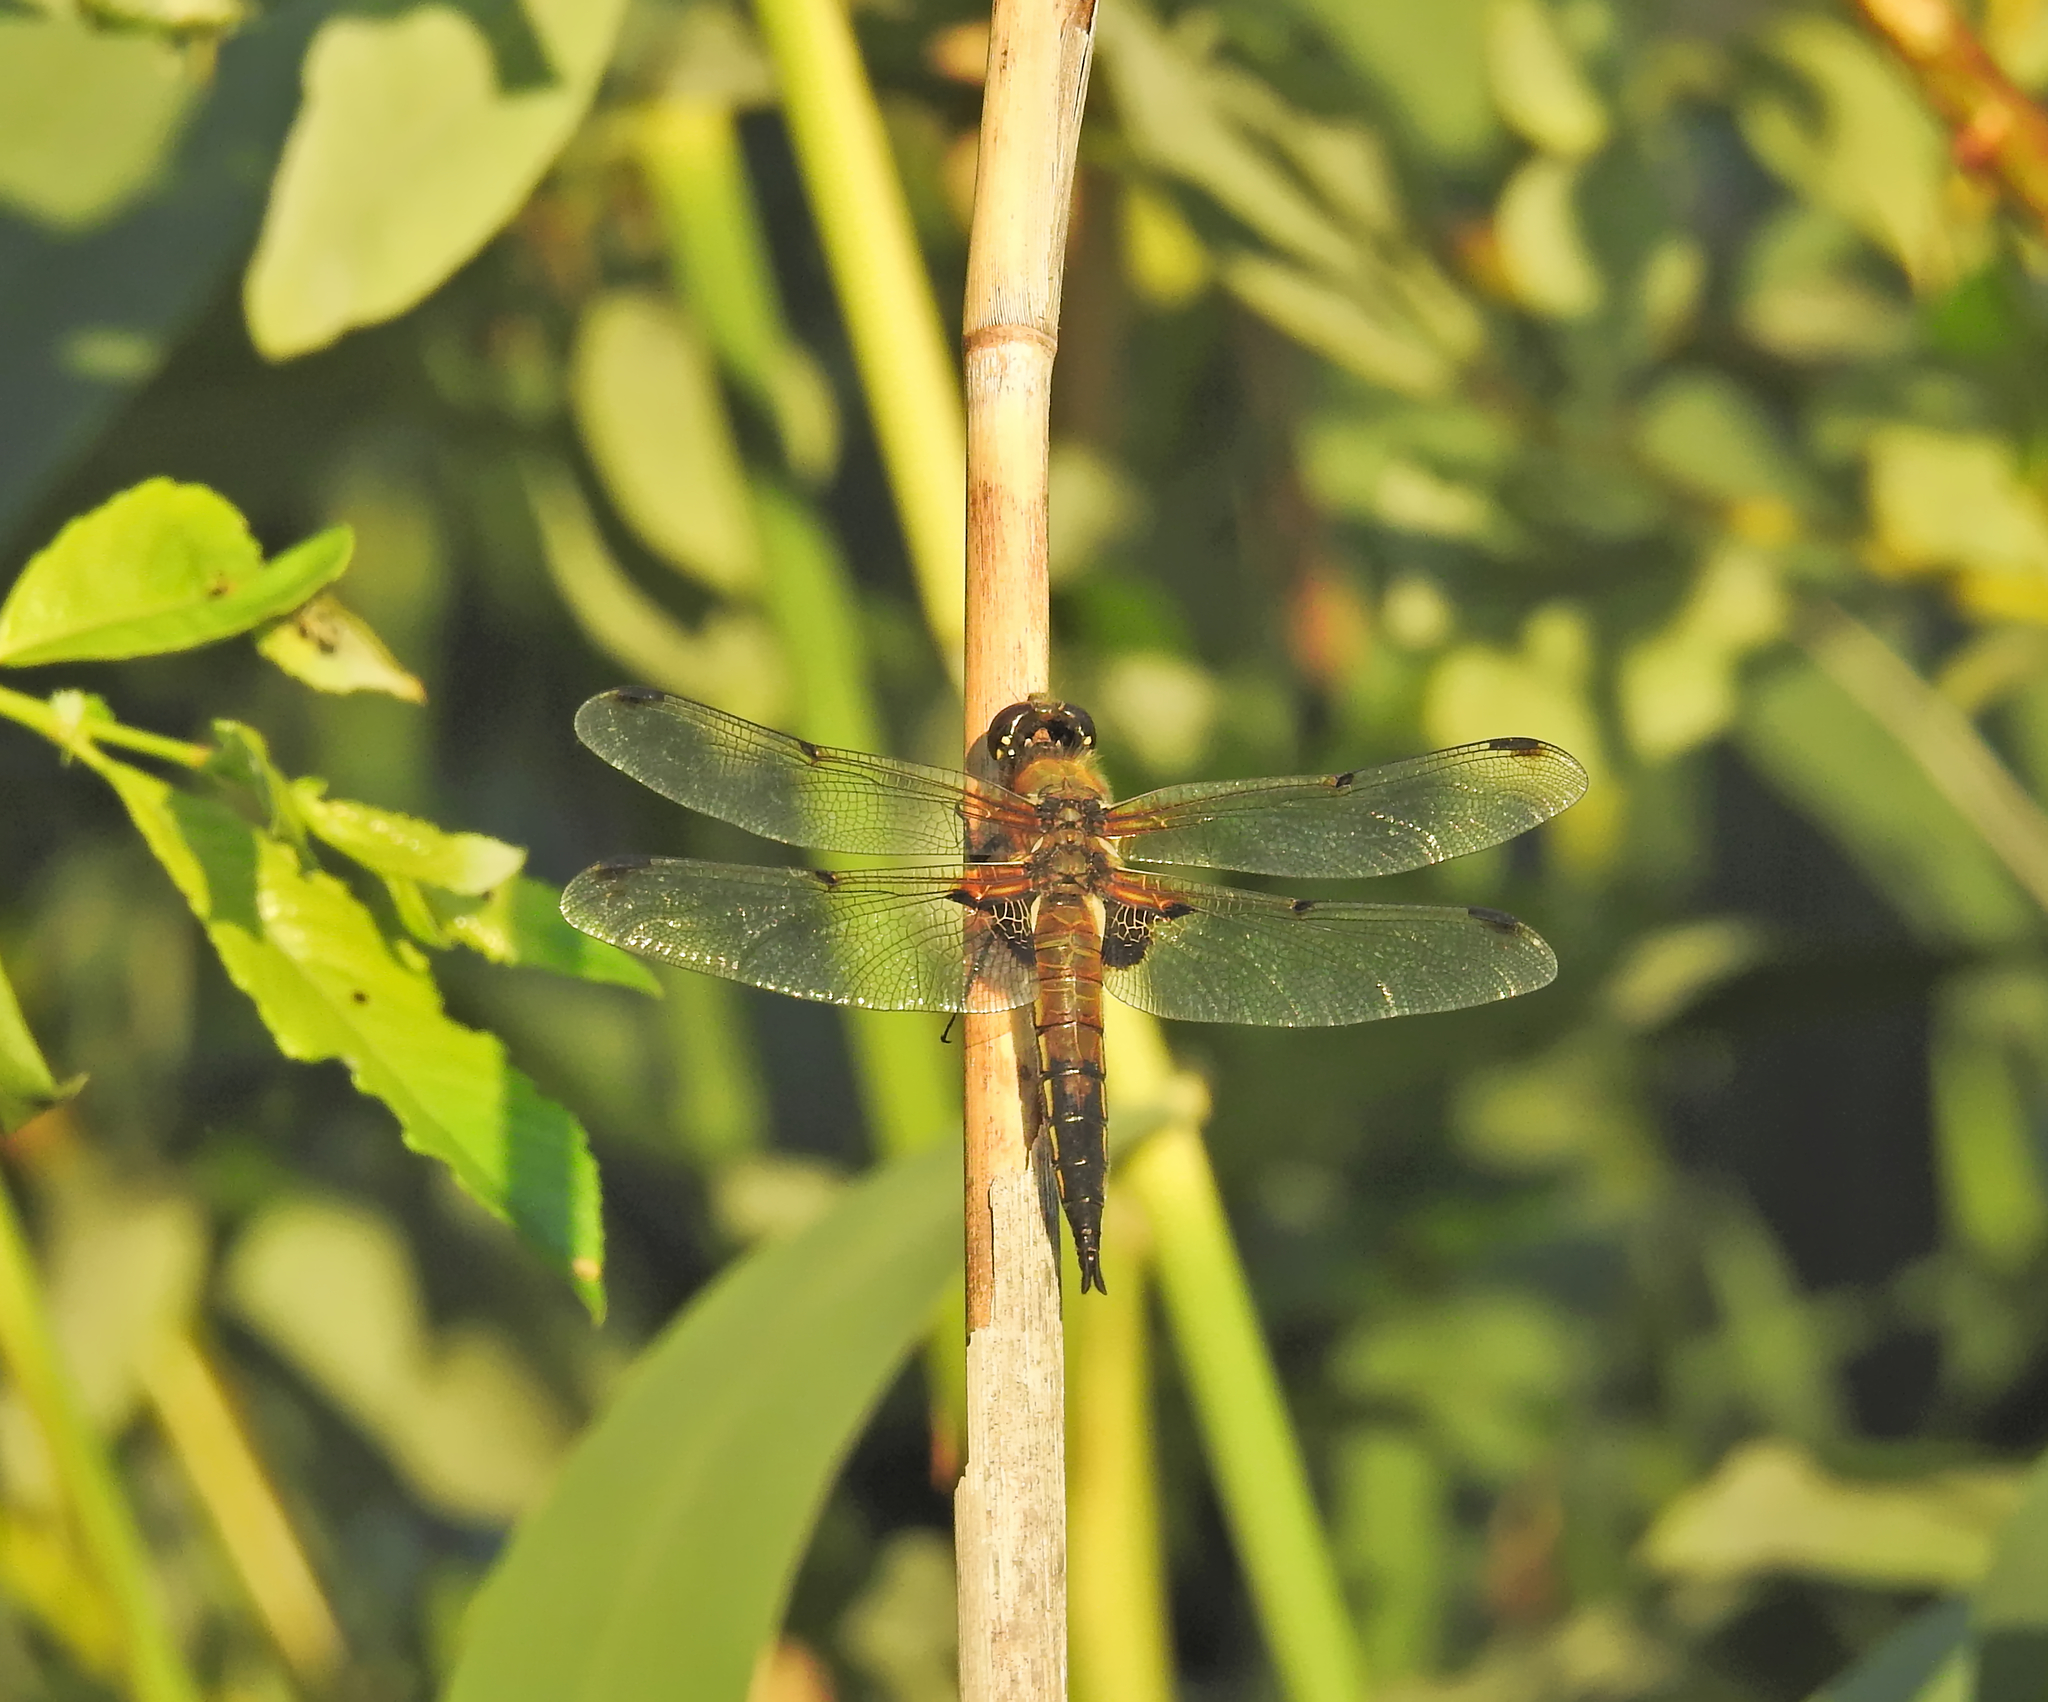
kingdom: Animalia
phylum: Arthropoda
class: Insecta
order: Odonata
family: Libellulidae
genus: Libellula
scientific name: Libellula quadrimaculata
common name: Four-spotted chaser
